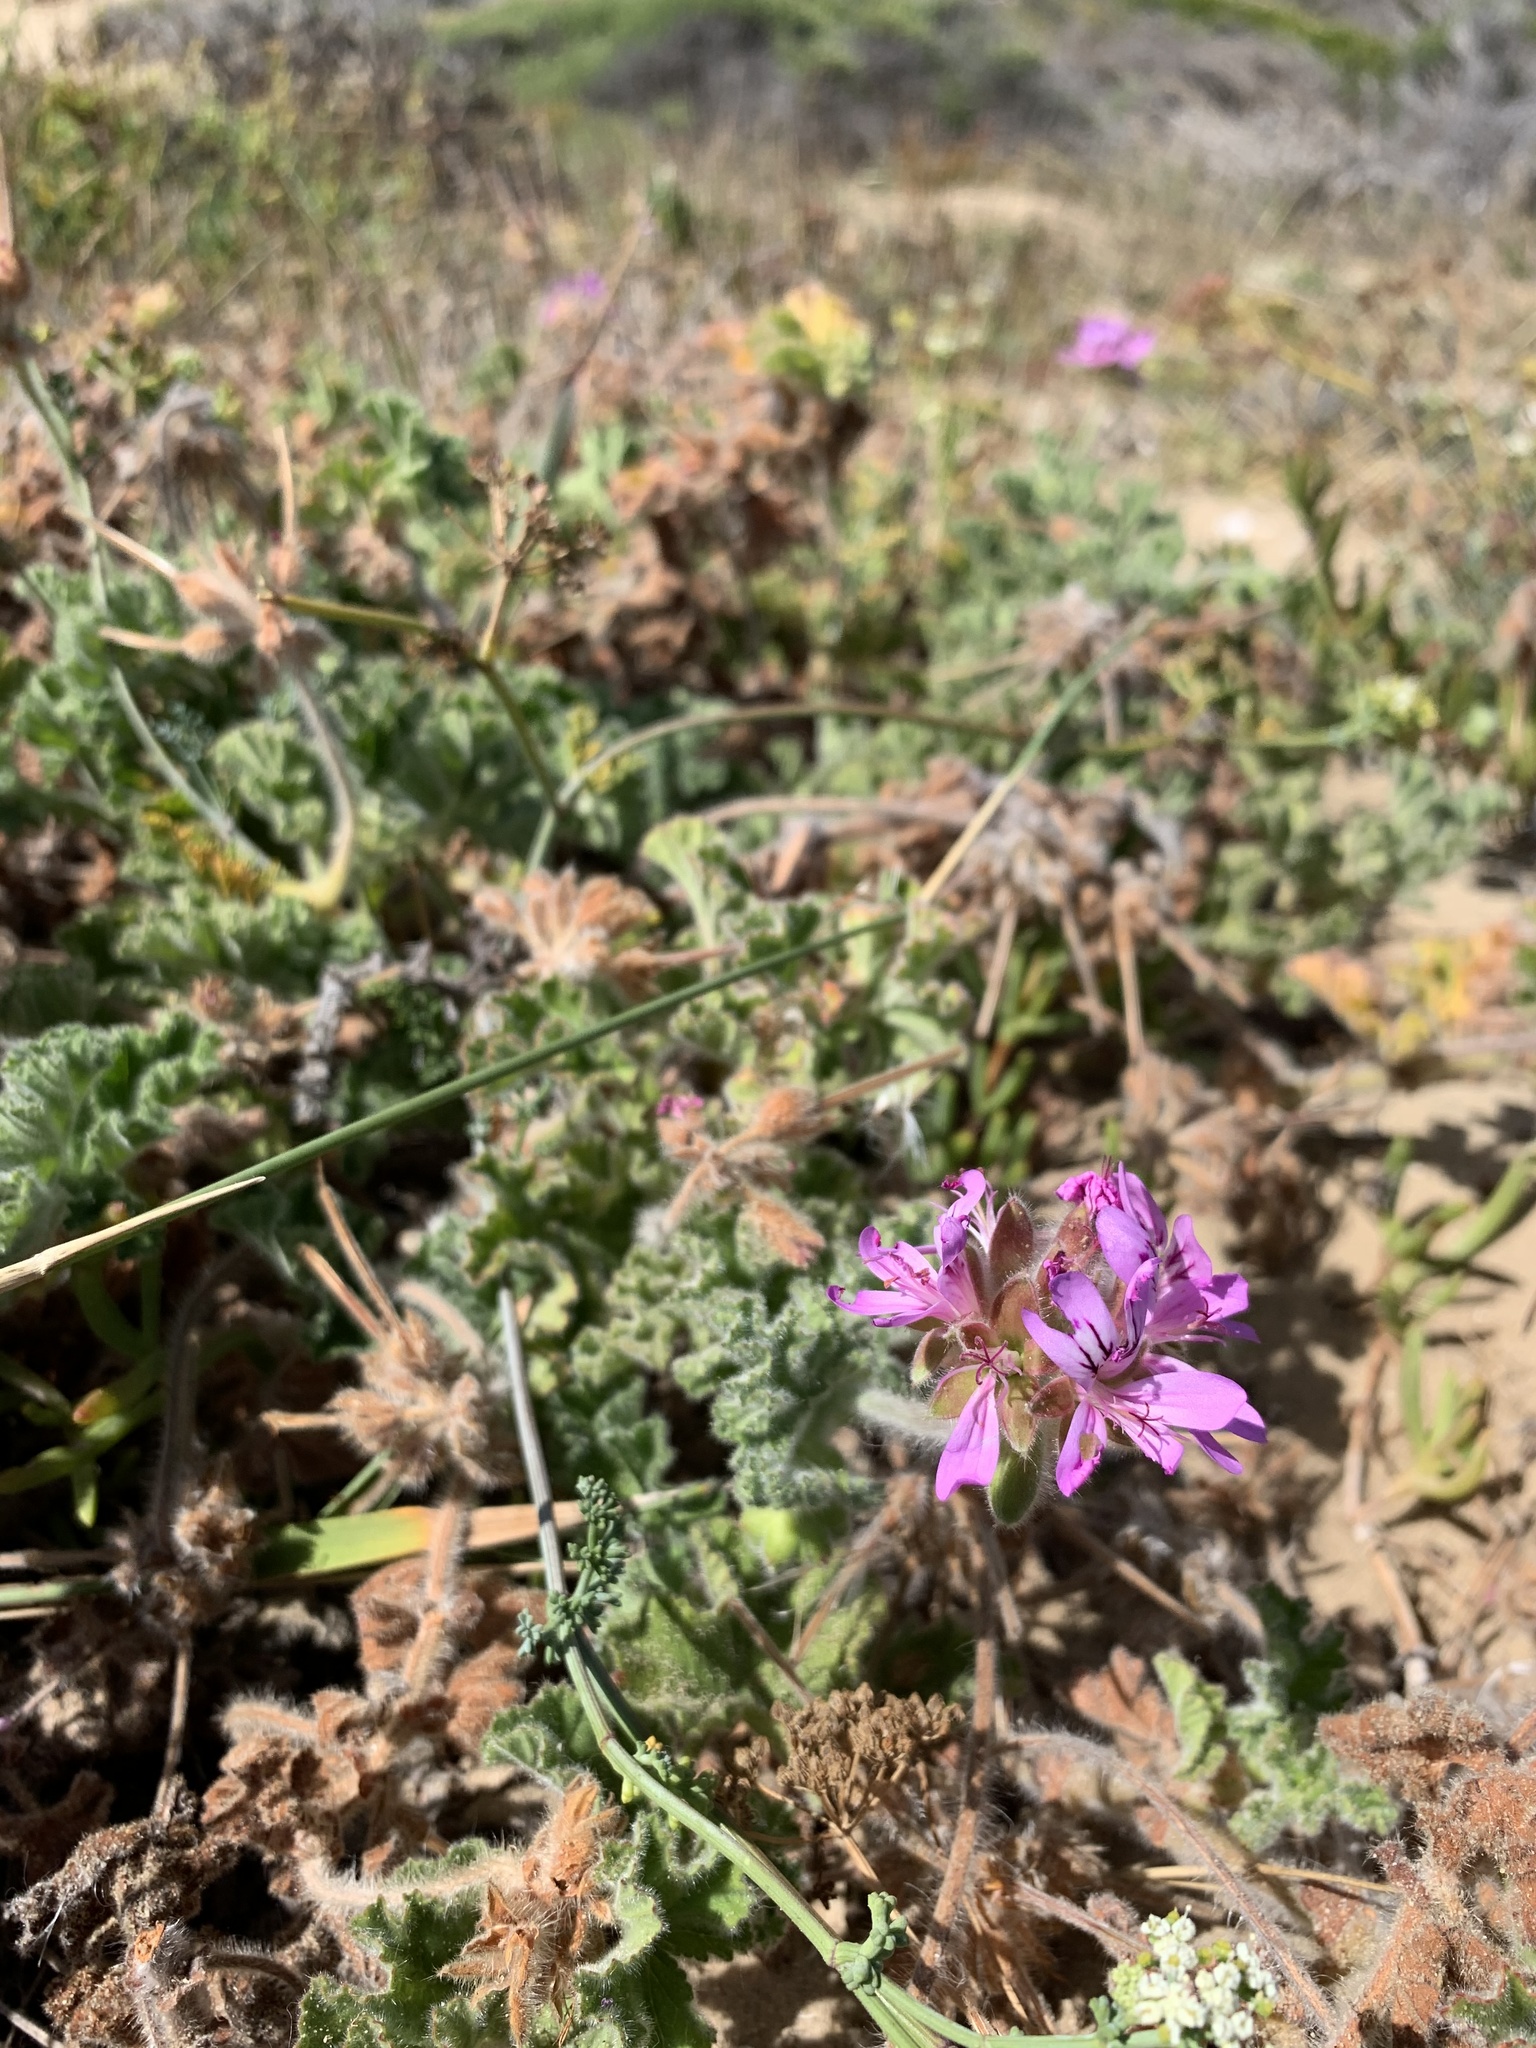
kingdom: Plantae
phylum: Tracheophyta
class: Magnoliopsida
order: Geraniales
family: Geraniaceae
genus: Pelargonium
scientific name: Pelargonium capitatum
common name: Rose scented geranium
